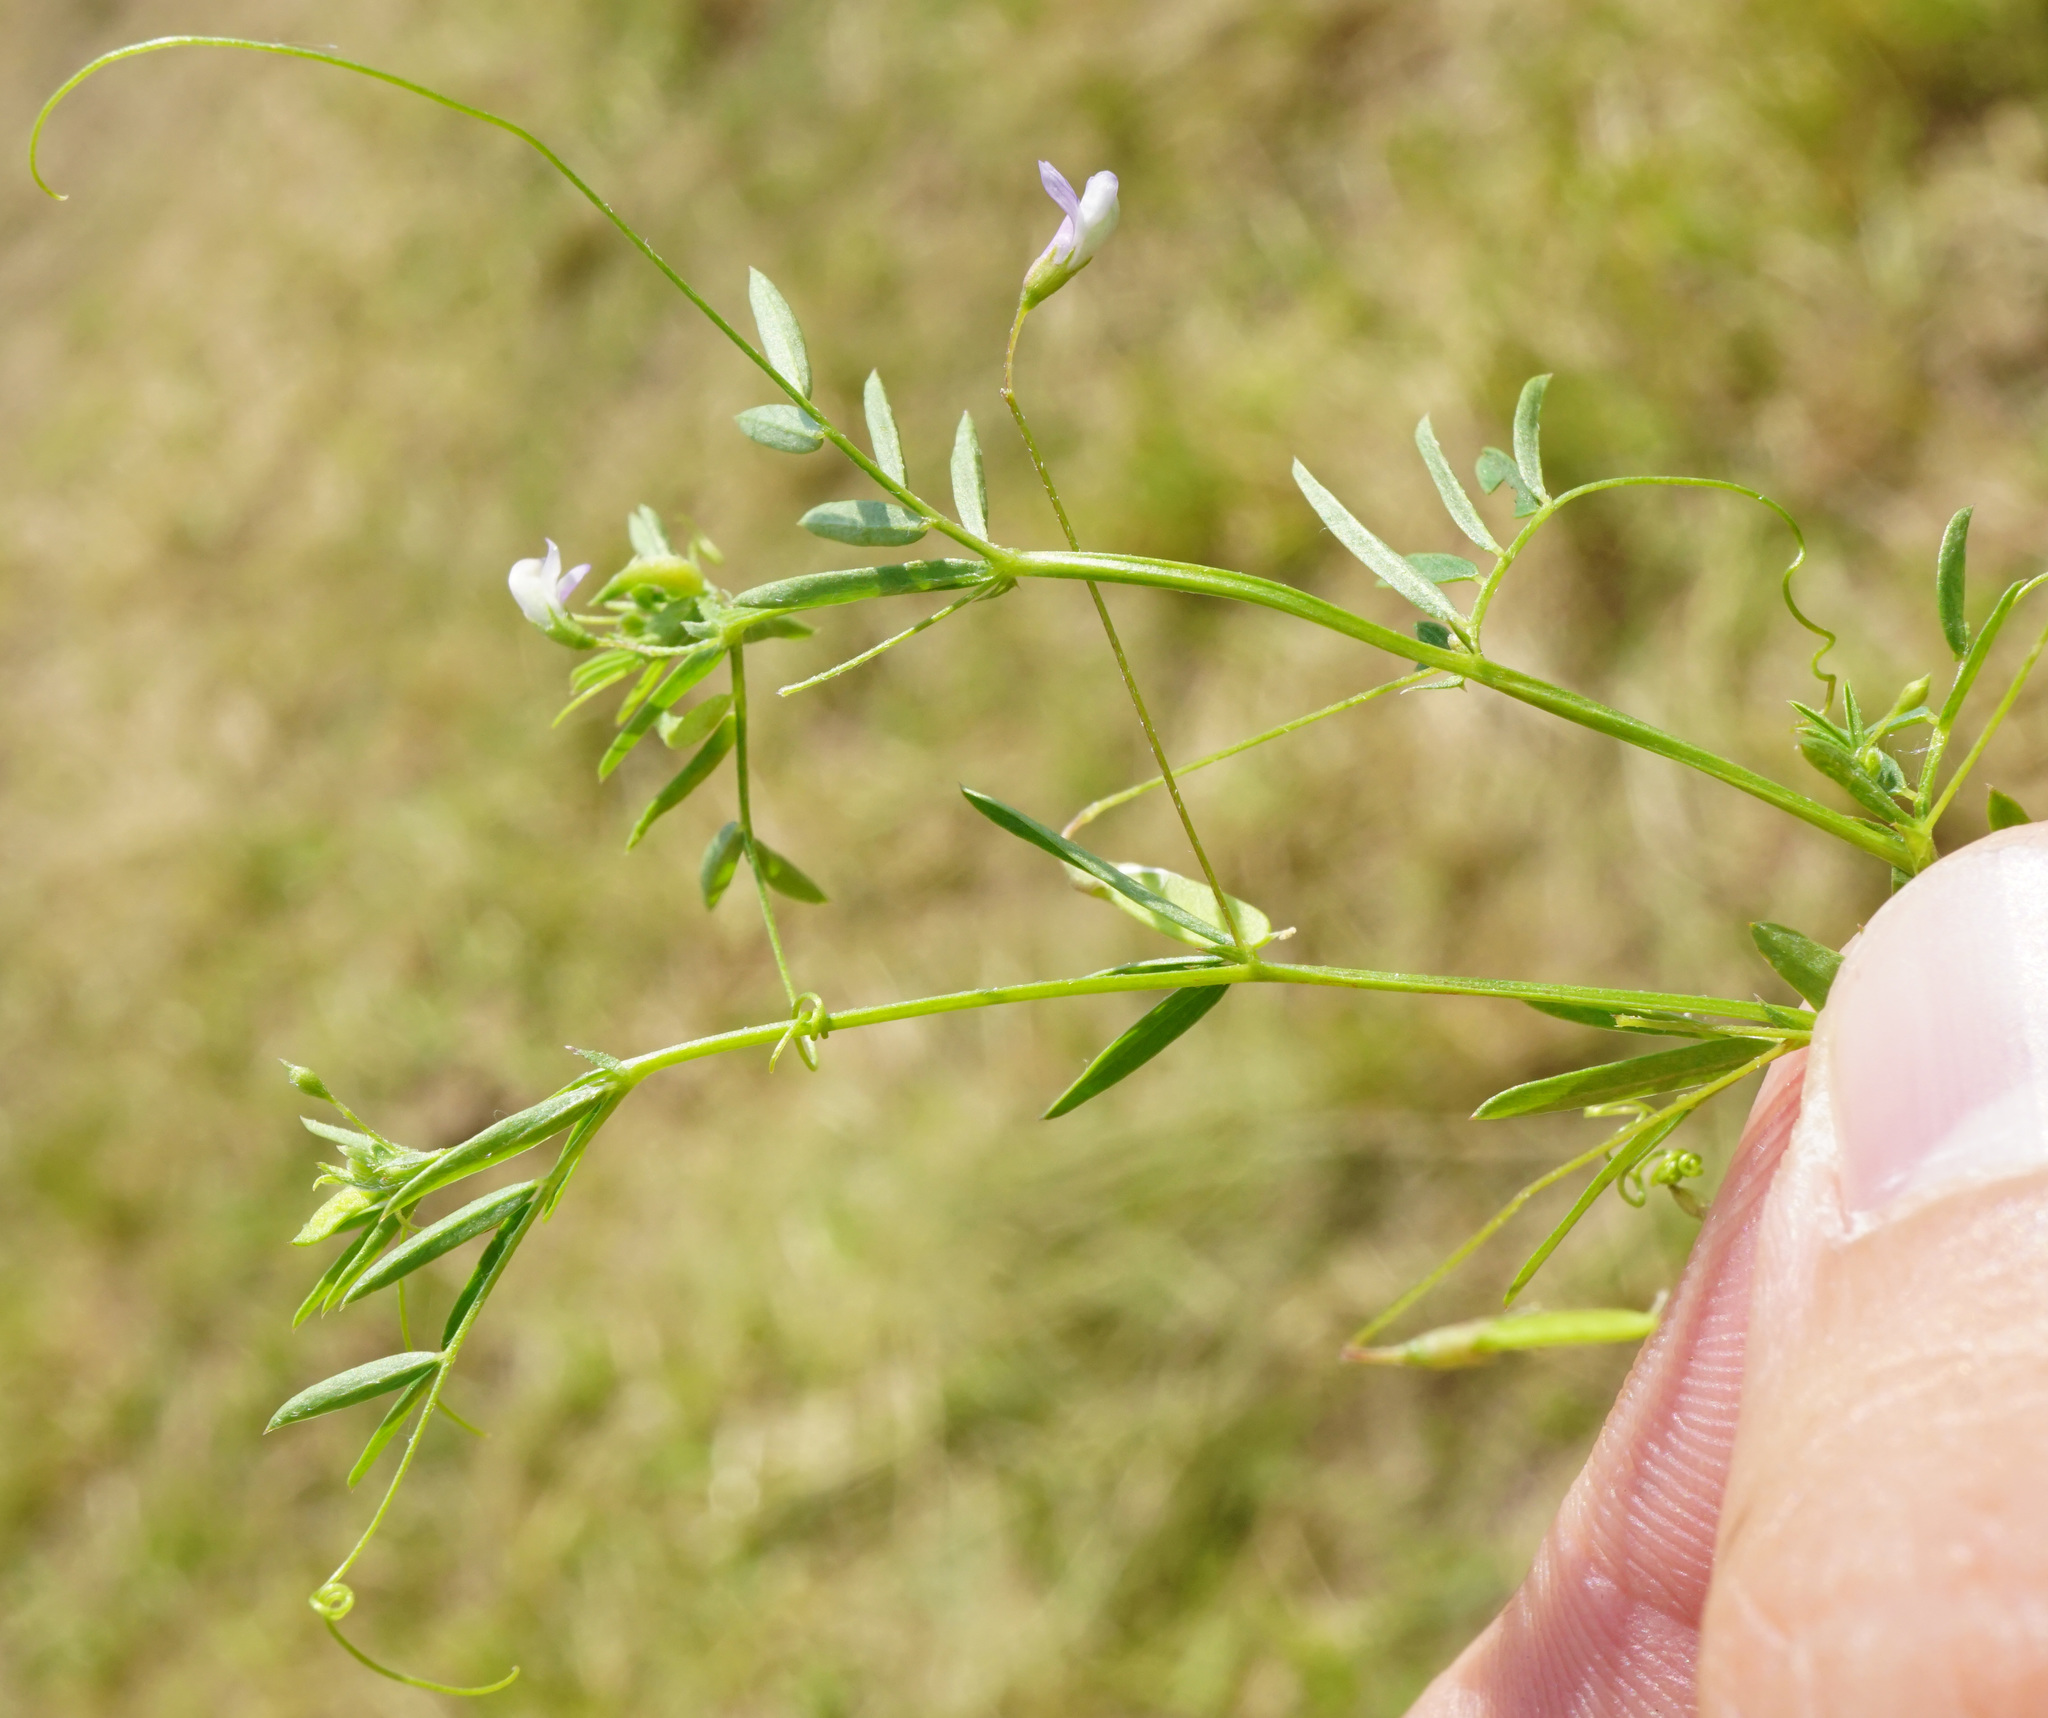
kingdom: Plantae
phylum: Tracheophyta
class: Magnoliopsida
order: Fabales
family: Fabaceae
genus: Vicia
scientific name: Vicia tetrasperma
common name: Smooth tare
